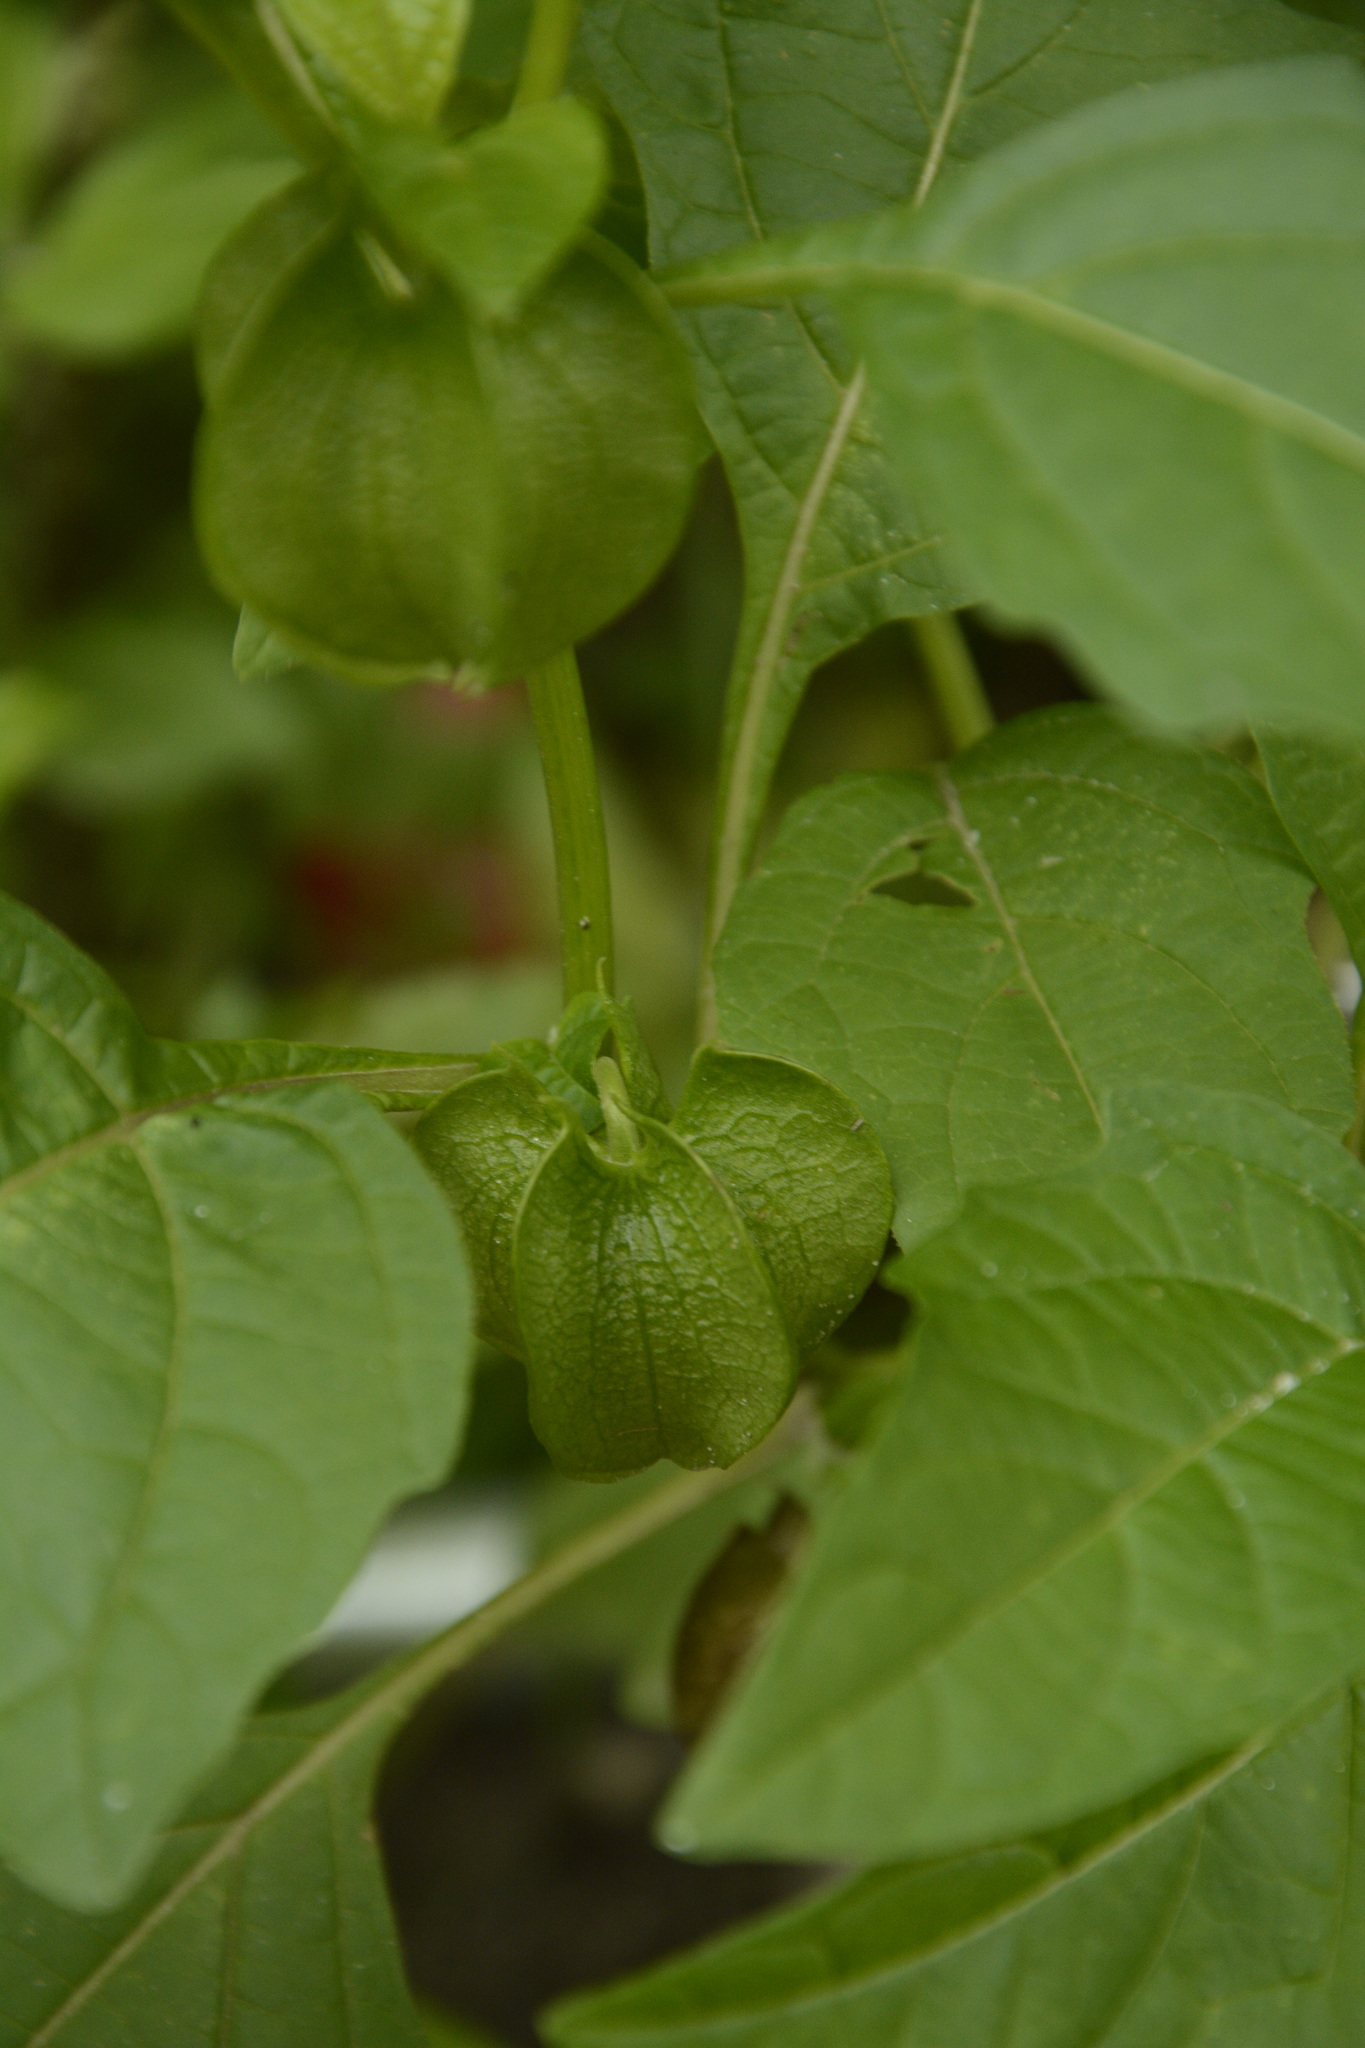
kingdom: Plantae
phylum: Tracheophyta
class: Magnoliopsida
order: Solanales
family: Solanaceae
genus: Nicandra
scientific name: Nicandra physalodes
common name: Apple-of-peru
